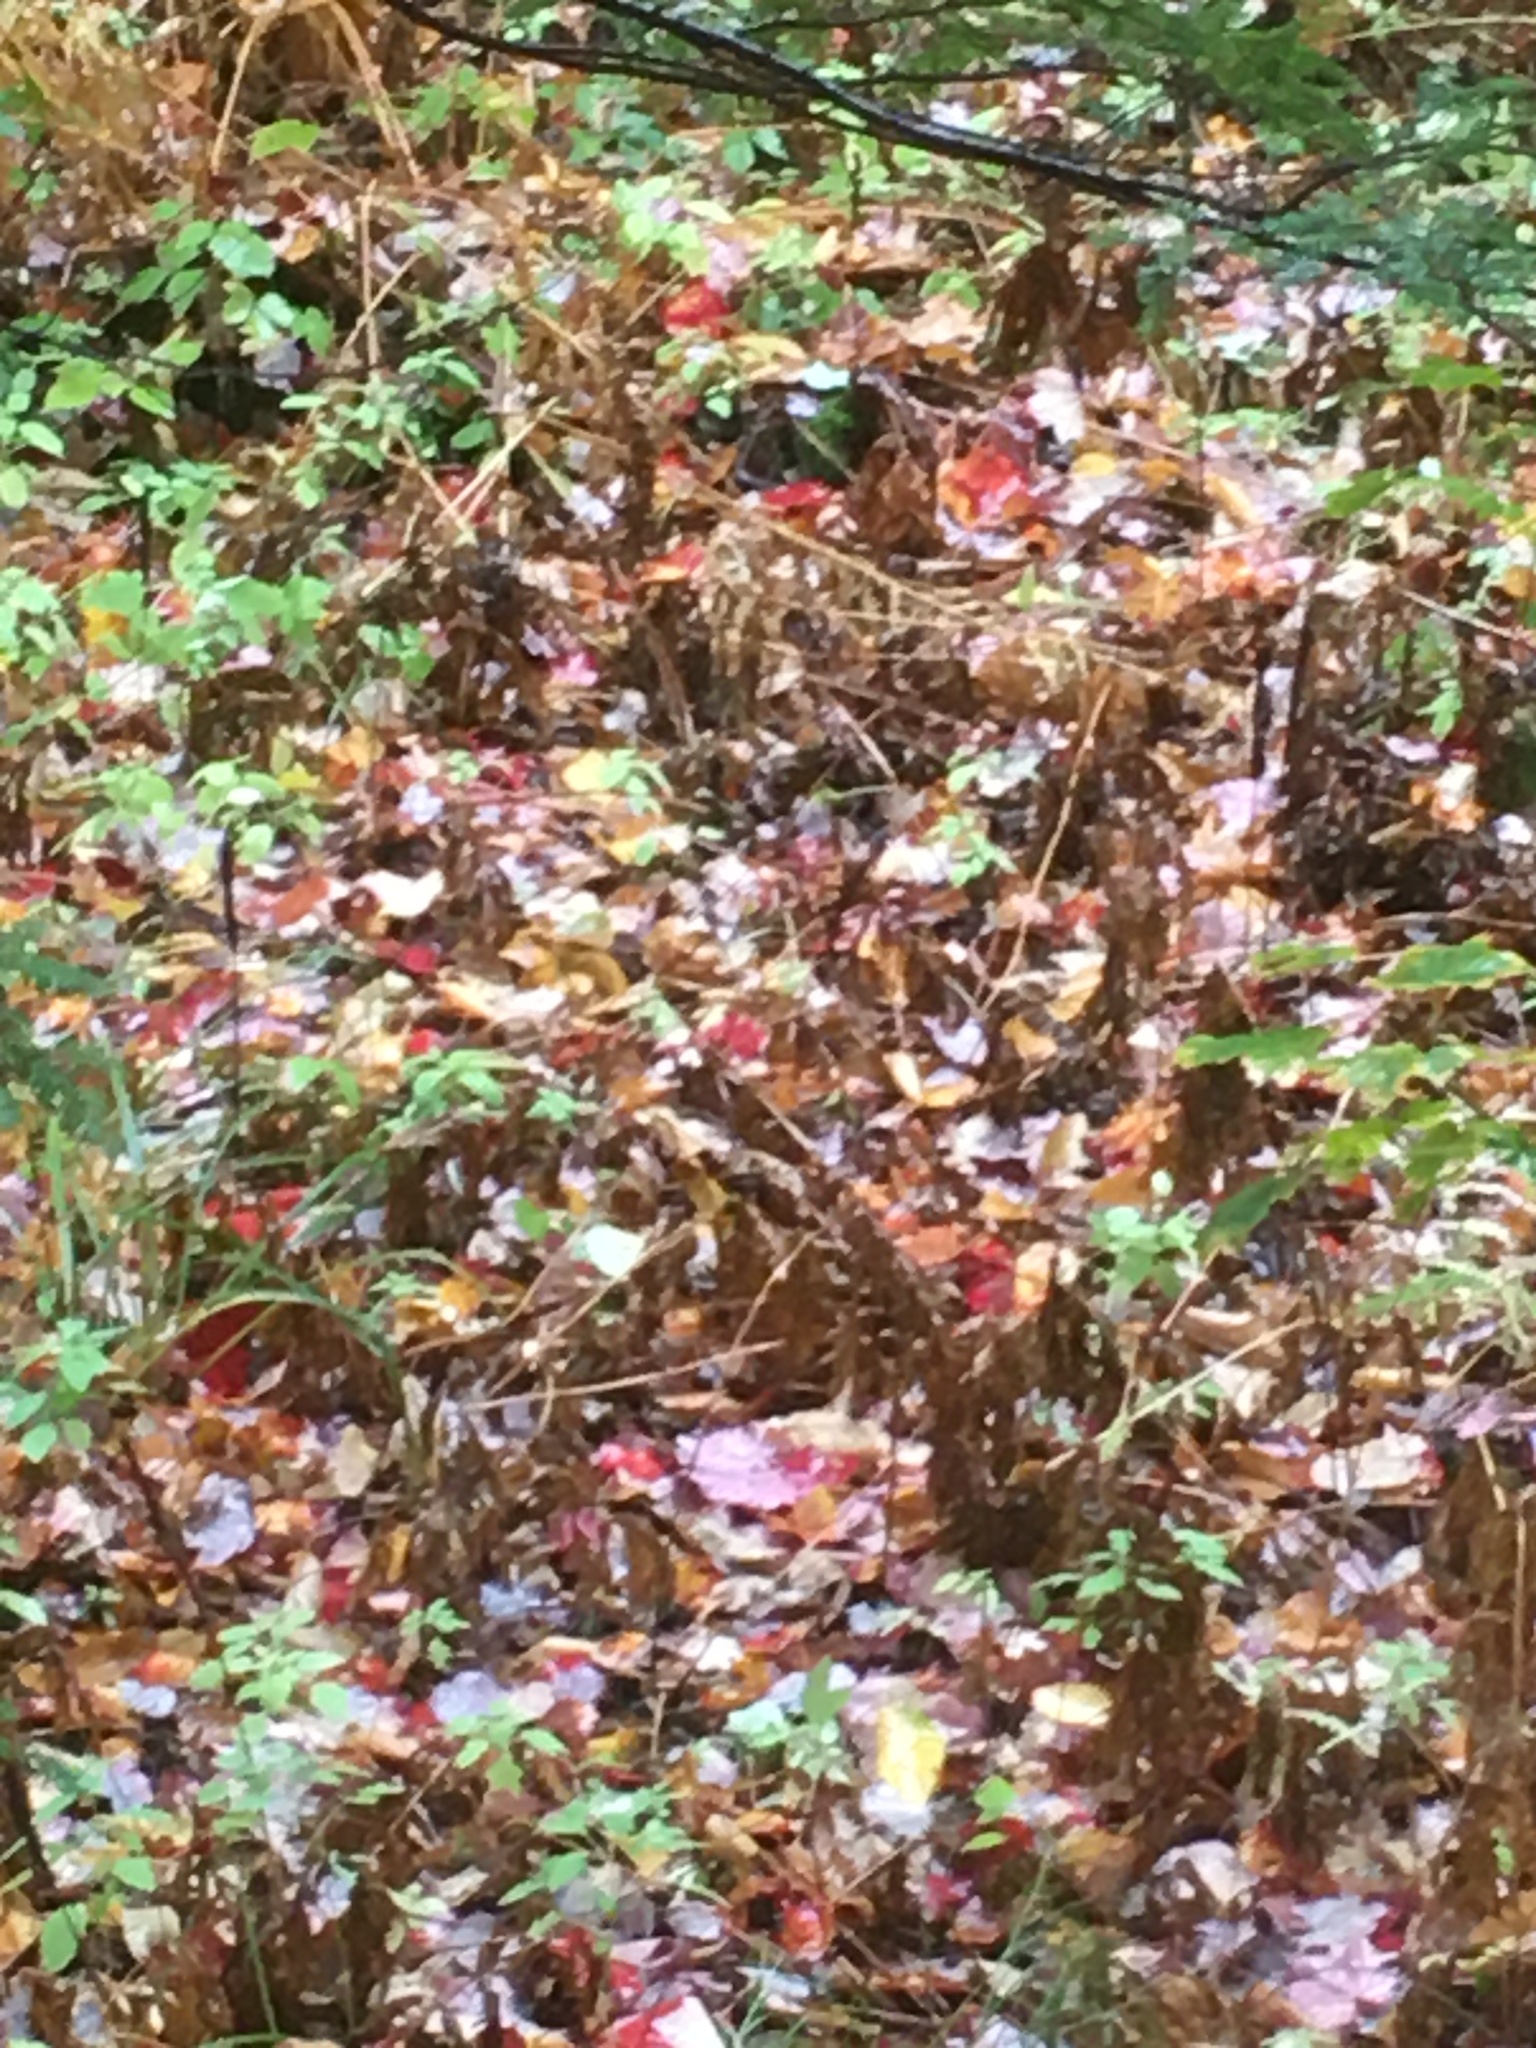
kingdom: Plantae
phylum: Tracheophyta
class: Polypodiopsida
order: Polypodiales
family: Onocleaceae
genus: Onoclea
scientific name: Onoclea sensibilis
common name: Sensitive fern
